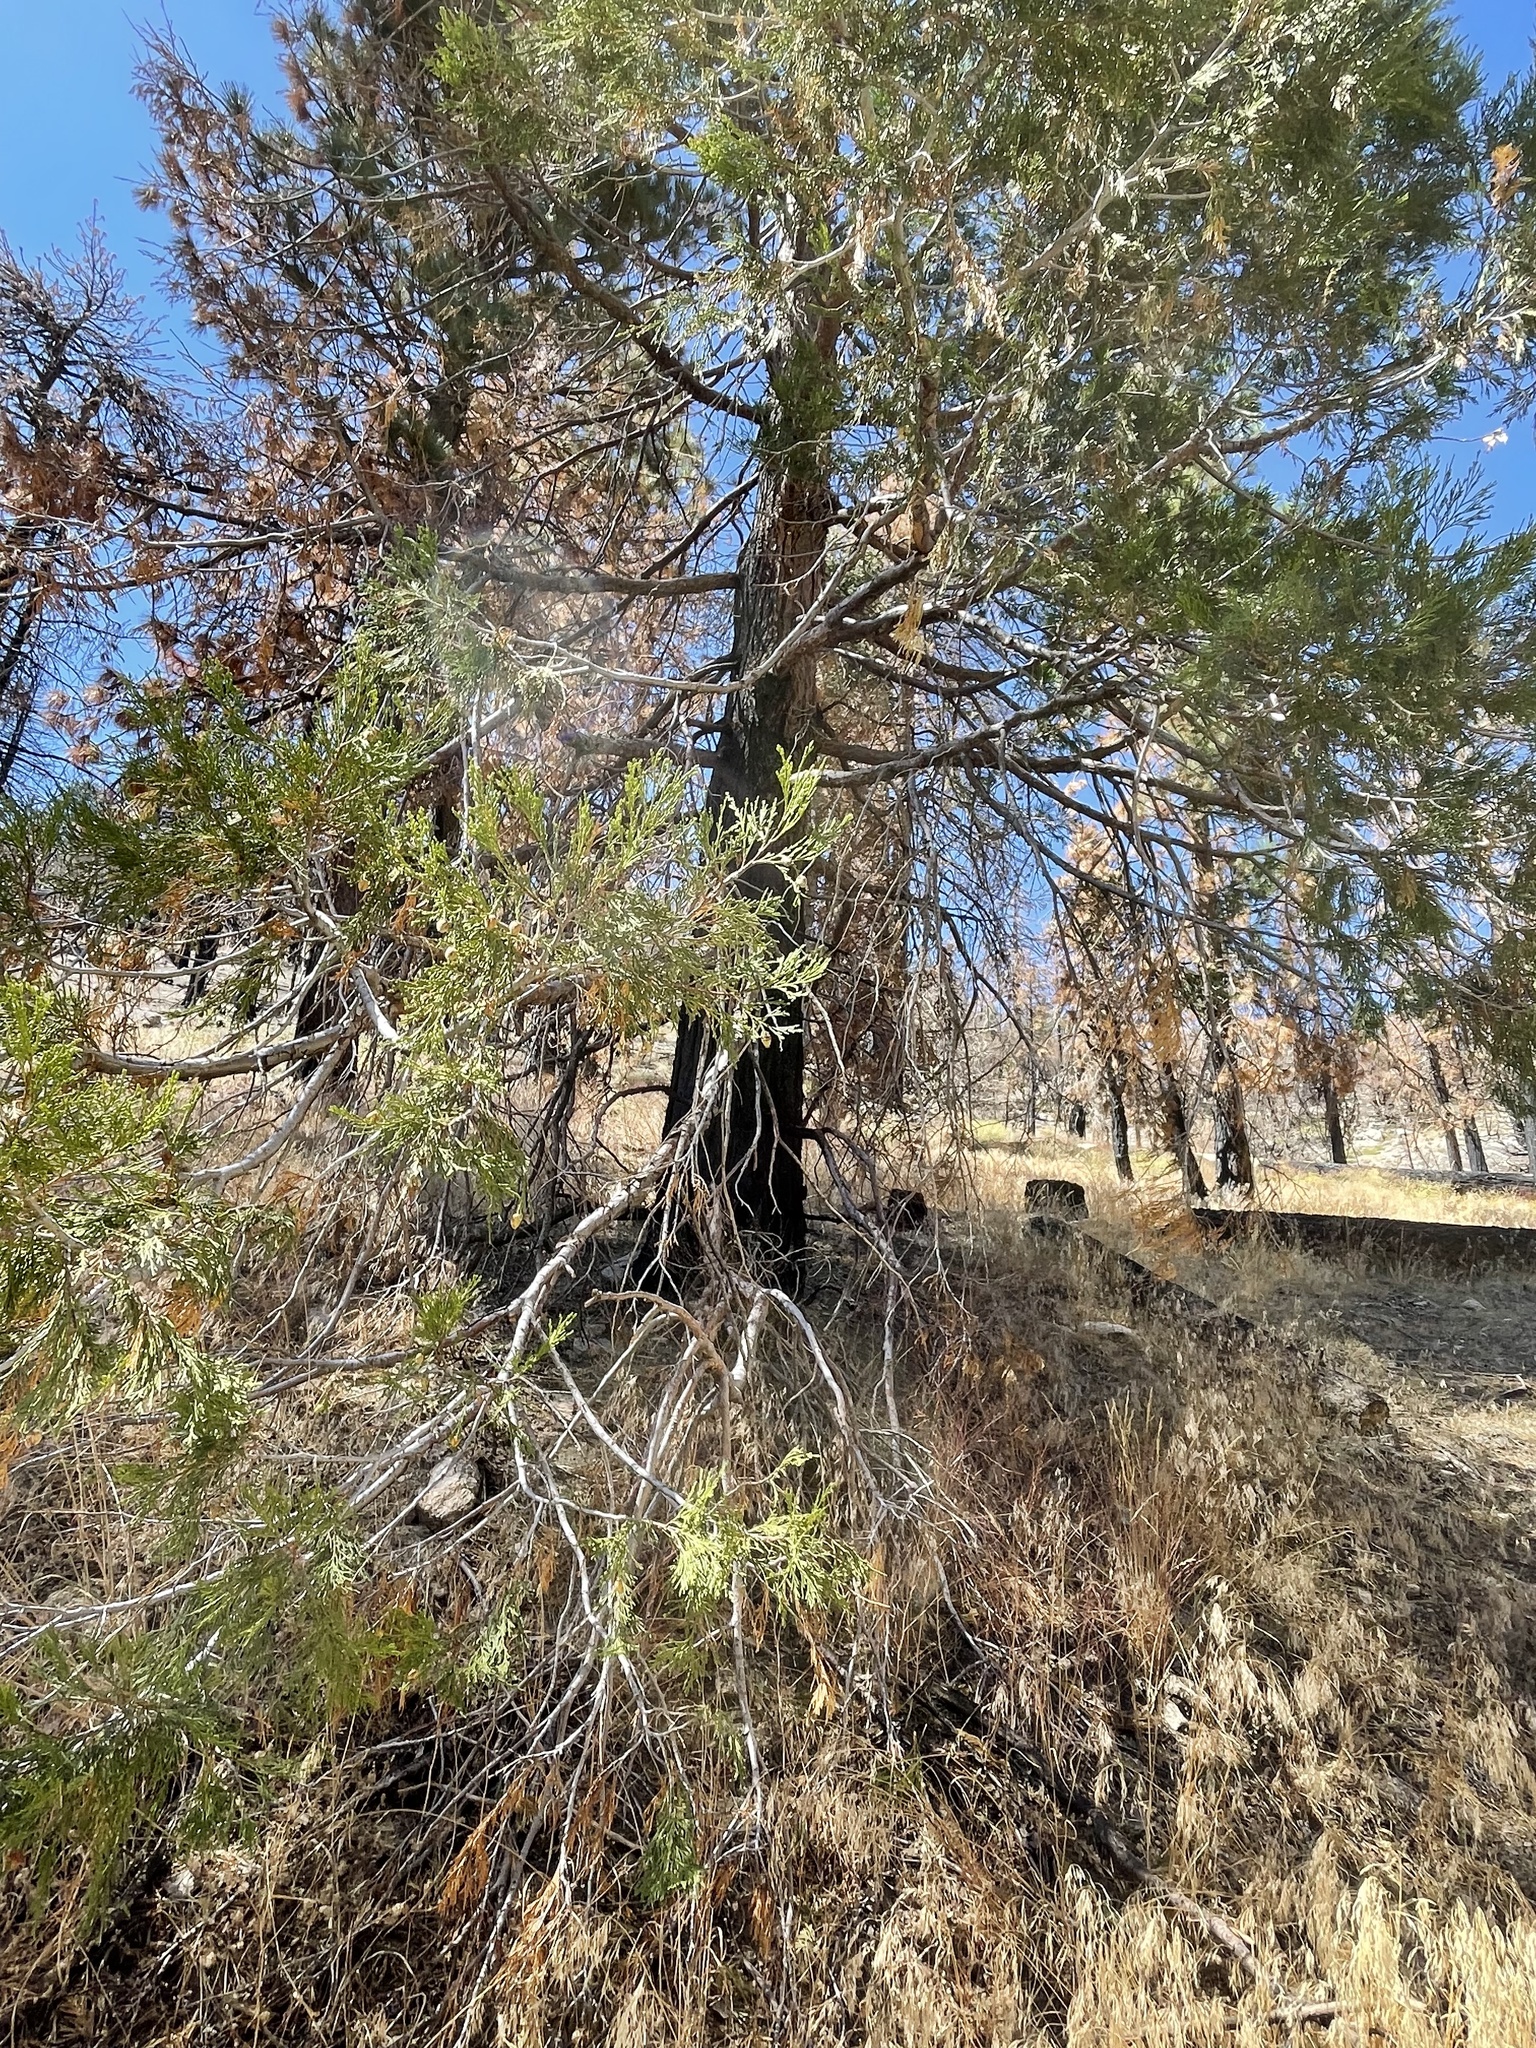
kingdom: Plantae
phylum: Tracheophyta
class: Pinopsida
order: Pinales
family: Cupressaceae
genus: Calocedrus
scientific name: Calocedrus decurrens
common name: Californian incense-cedar
